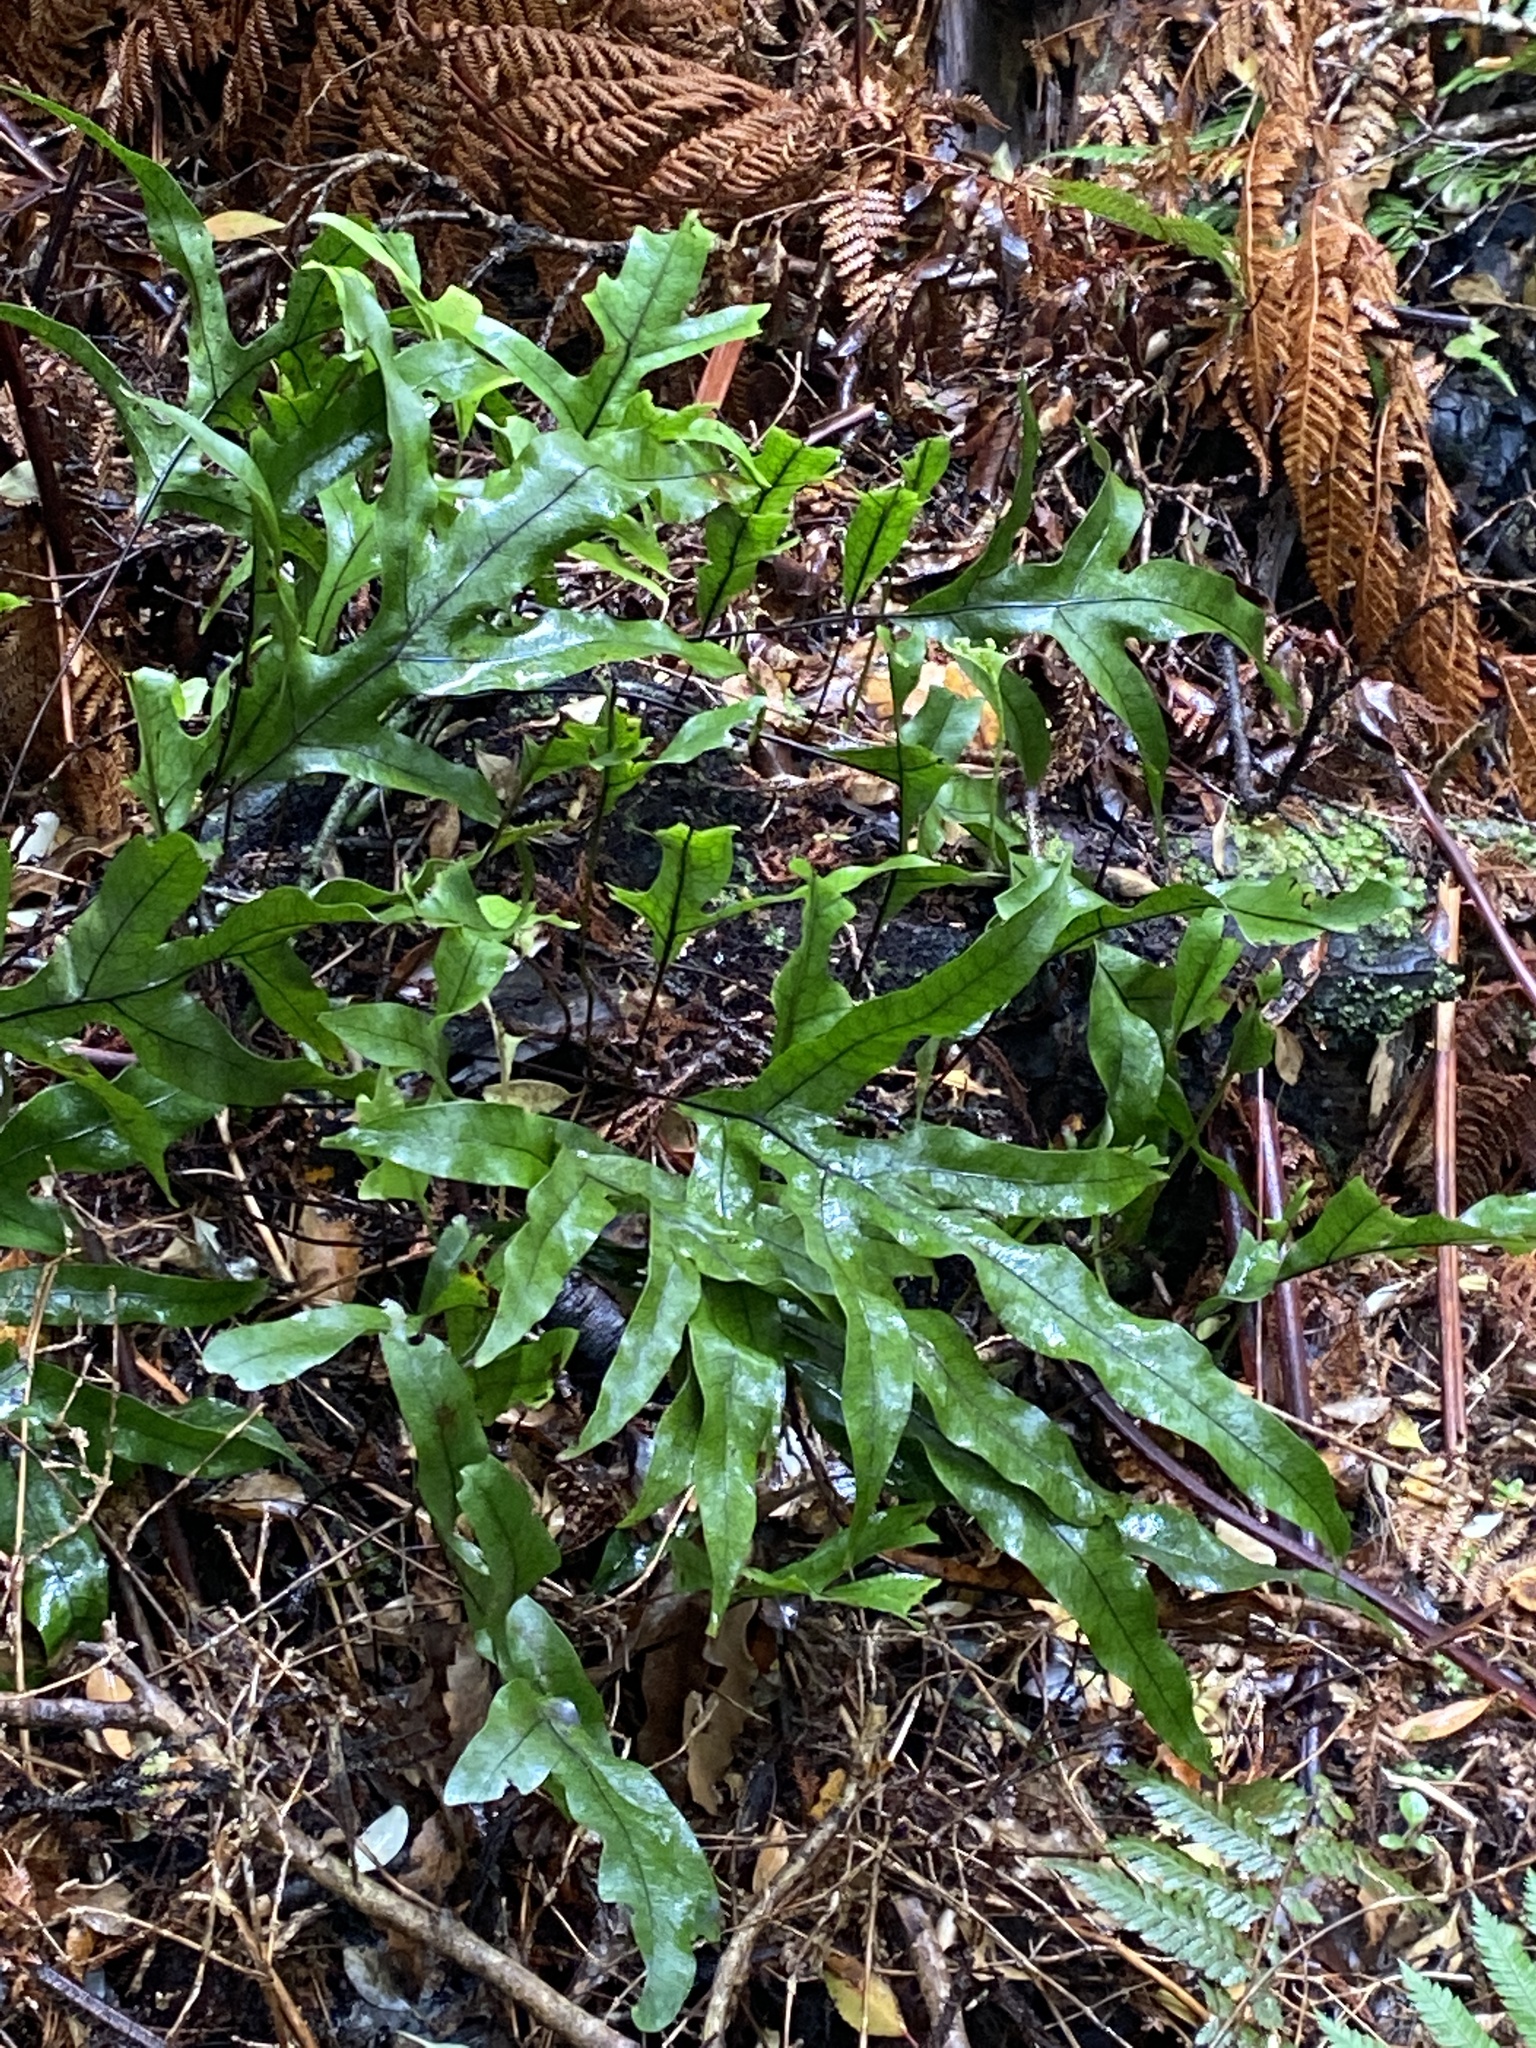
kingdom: Plantae
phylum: Tracheophyta
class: Polypodiopsida
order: Polypodiales
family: Polypodiaceae
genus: Lecanopteris
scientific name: Lecanopteris pustulata
